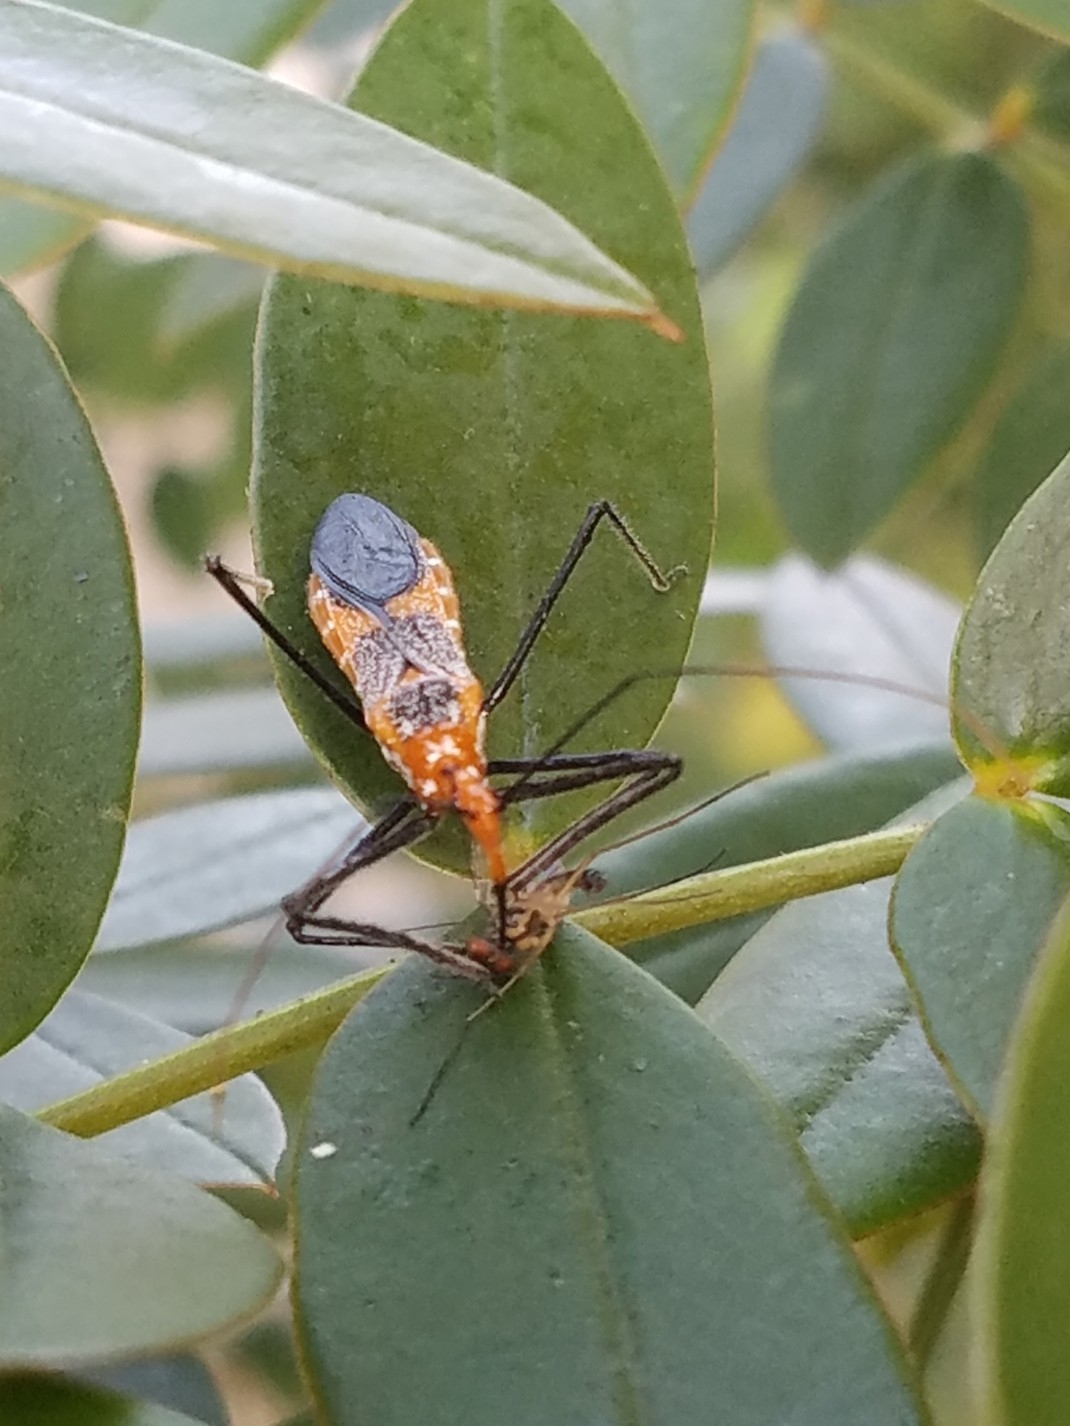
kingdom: Animalia
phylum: Arthropoda
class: Insecta
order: Hemiptera
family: Reduviidae
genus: Zelus
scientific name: Zelus longipes
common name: Milkweed assassin bug
